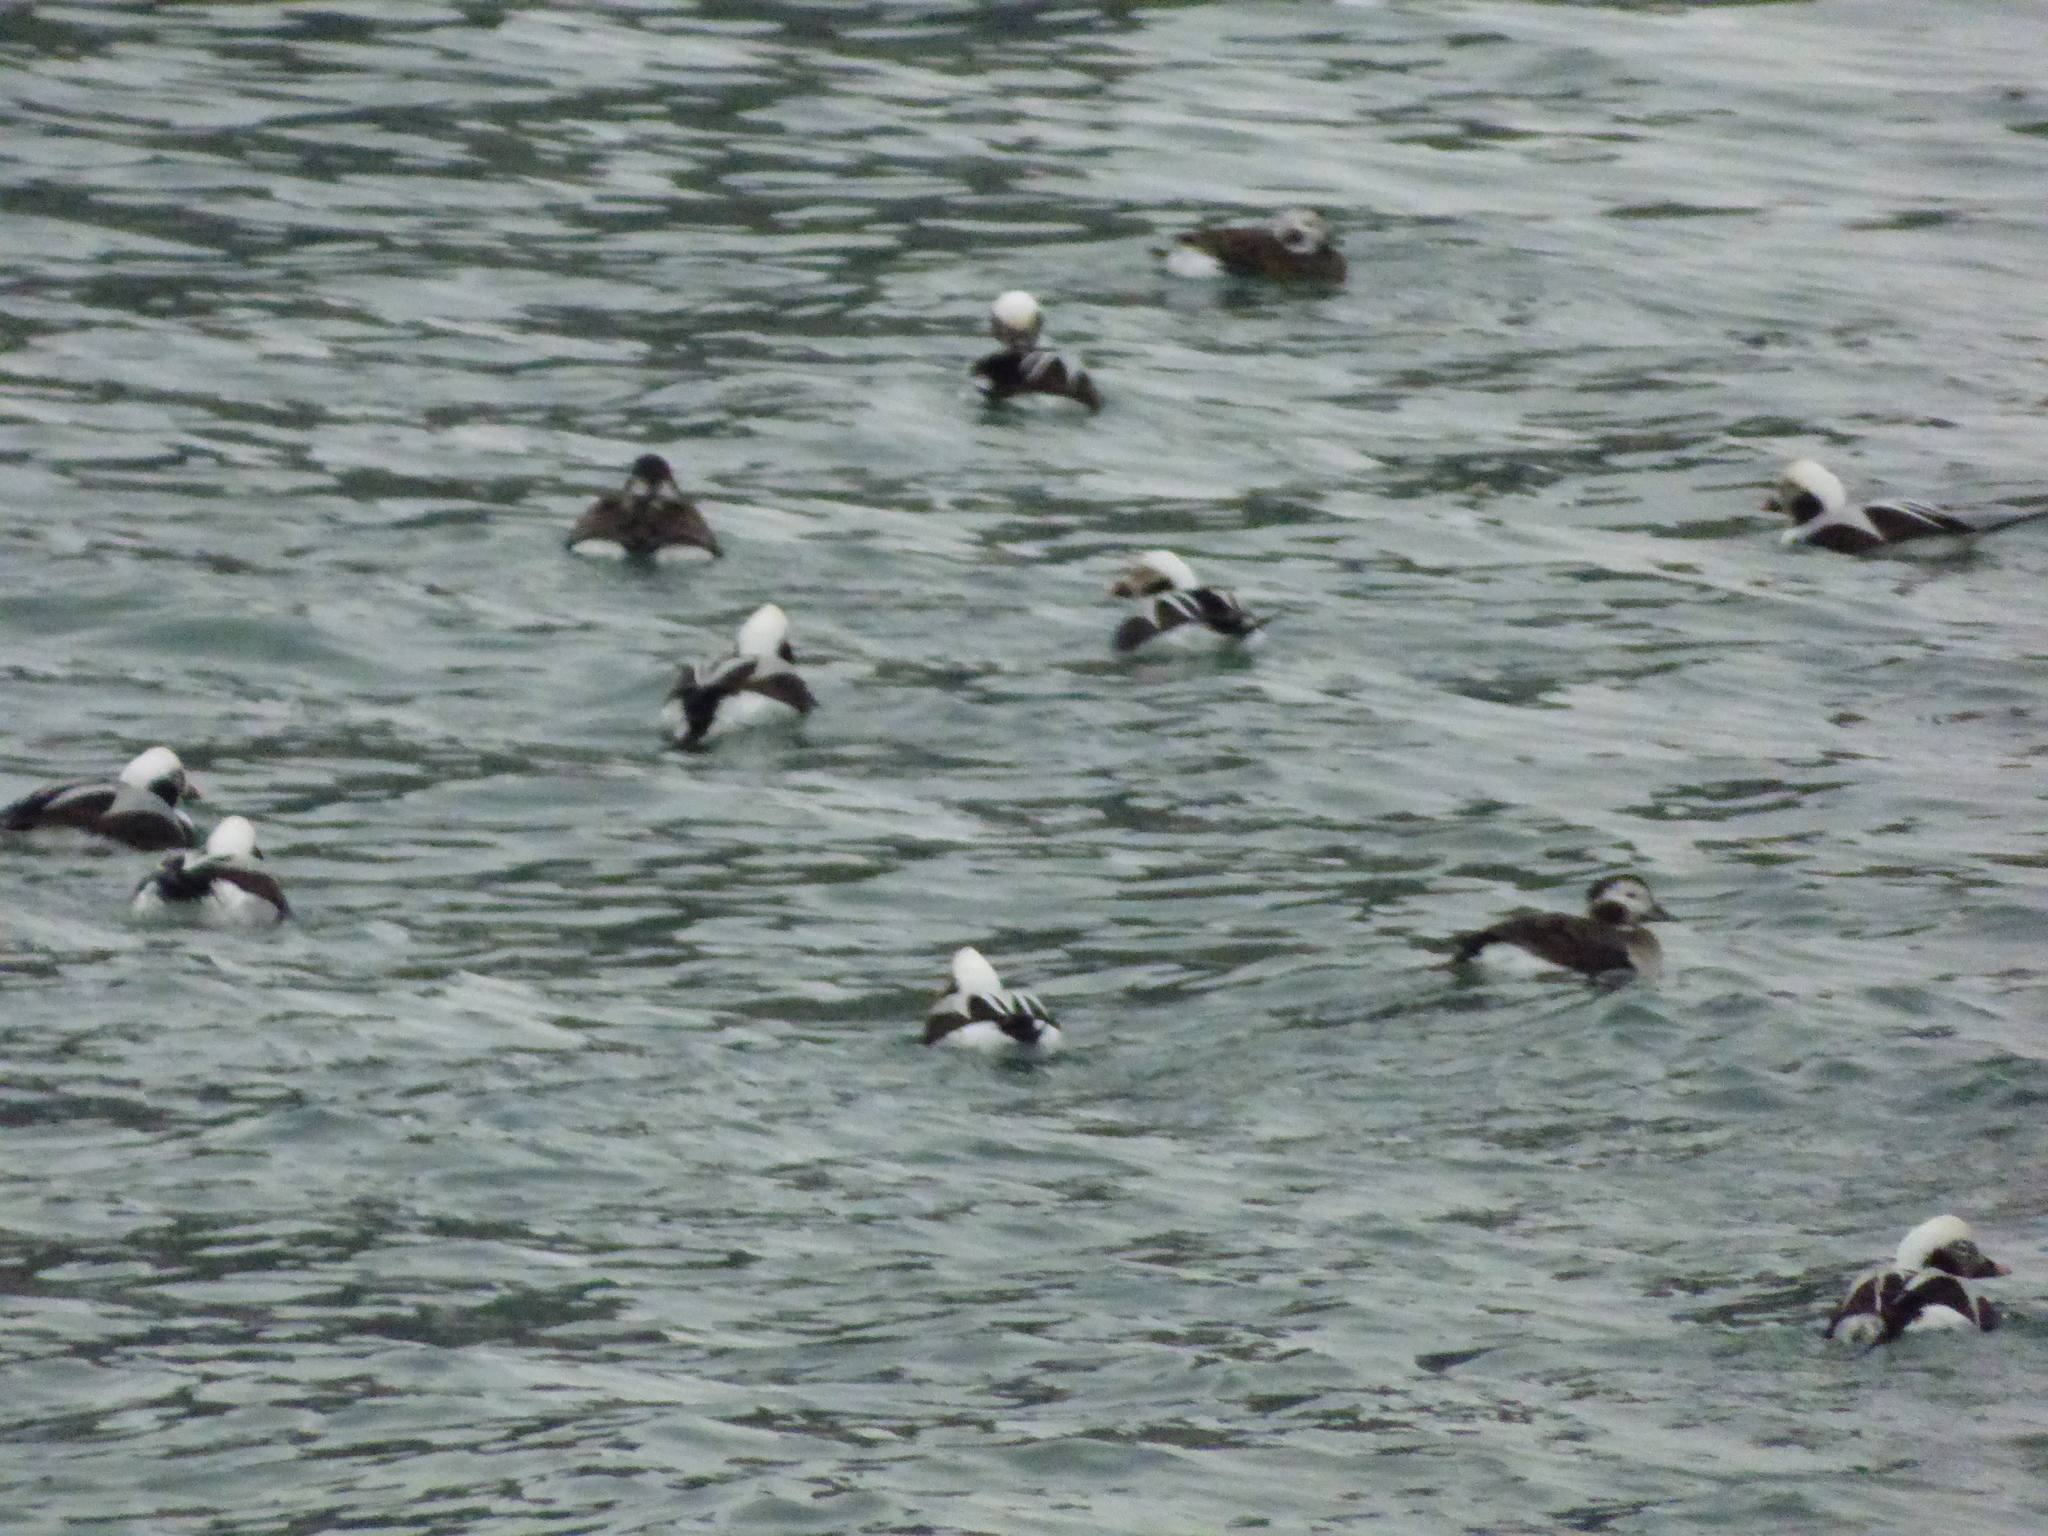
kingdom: Animalia
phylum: Chordata
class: Aves
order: Anseriformes
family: Anatidae
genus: Clangula
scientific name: Clangula hyemalis
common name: Long-tailed duck
